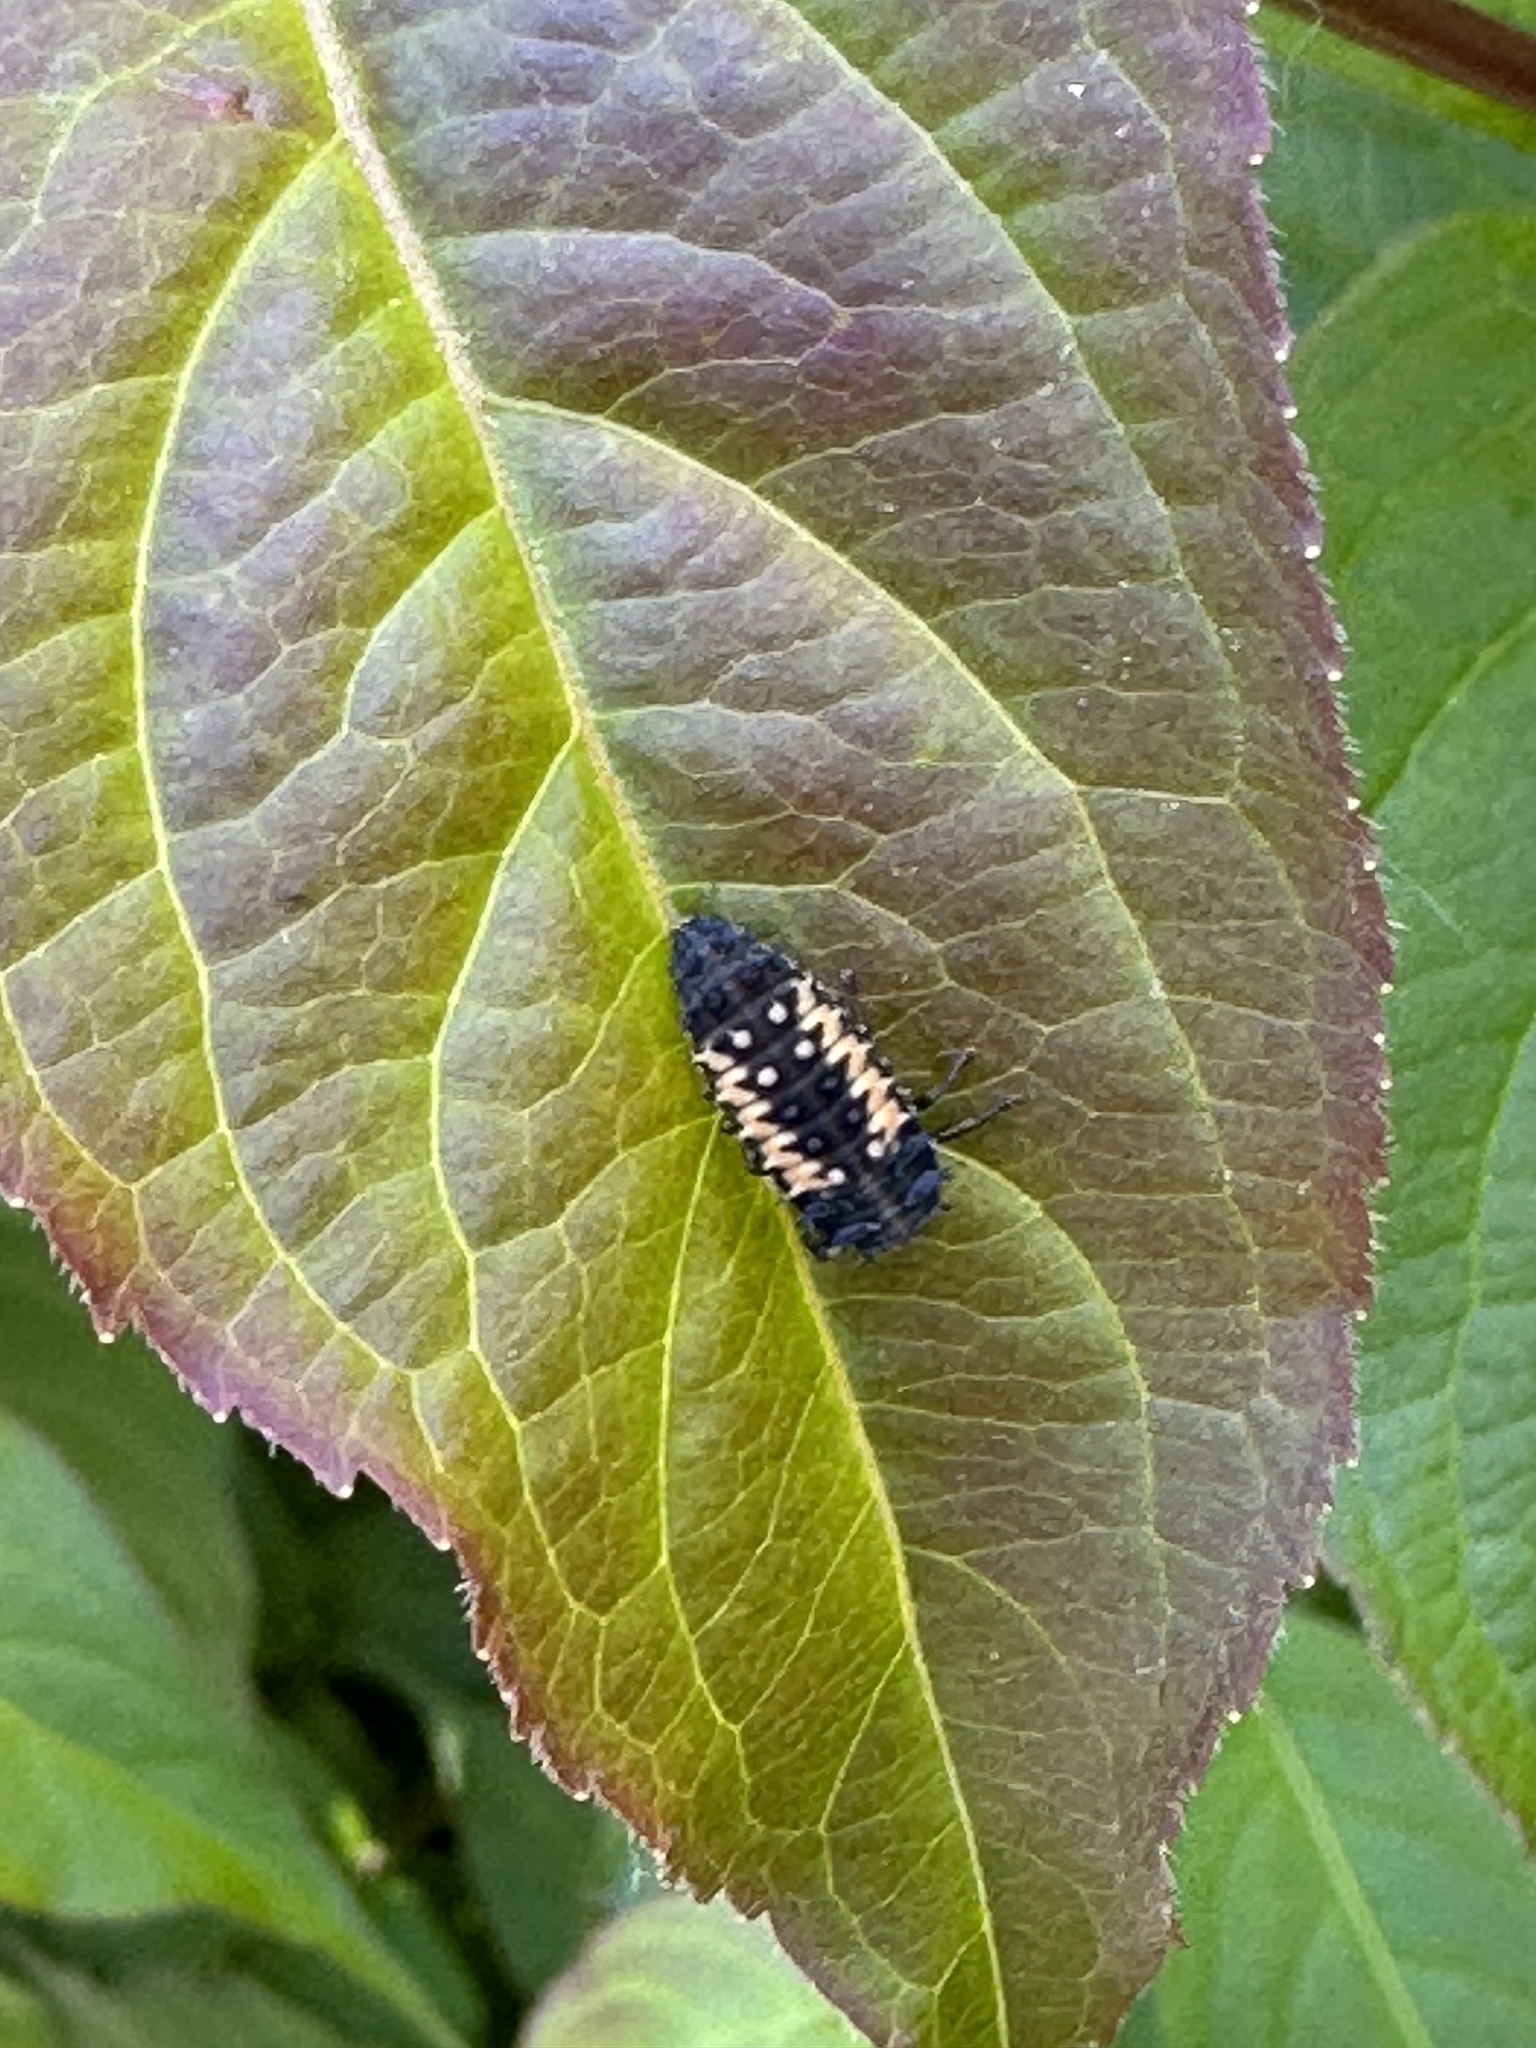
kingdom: Animalia
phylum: Arthropoda
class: Insecta
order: Coleoptera
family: Coccinellidae
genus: Harmonia
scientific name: Harmonia axyridis
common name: Harlequin ladybird
